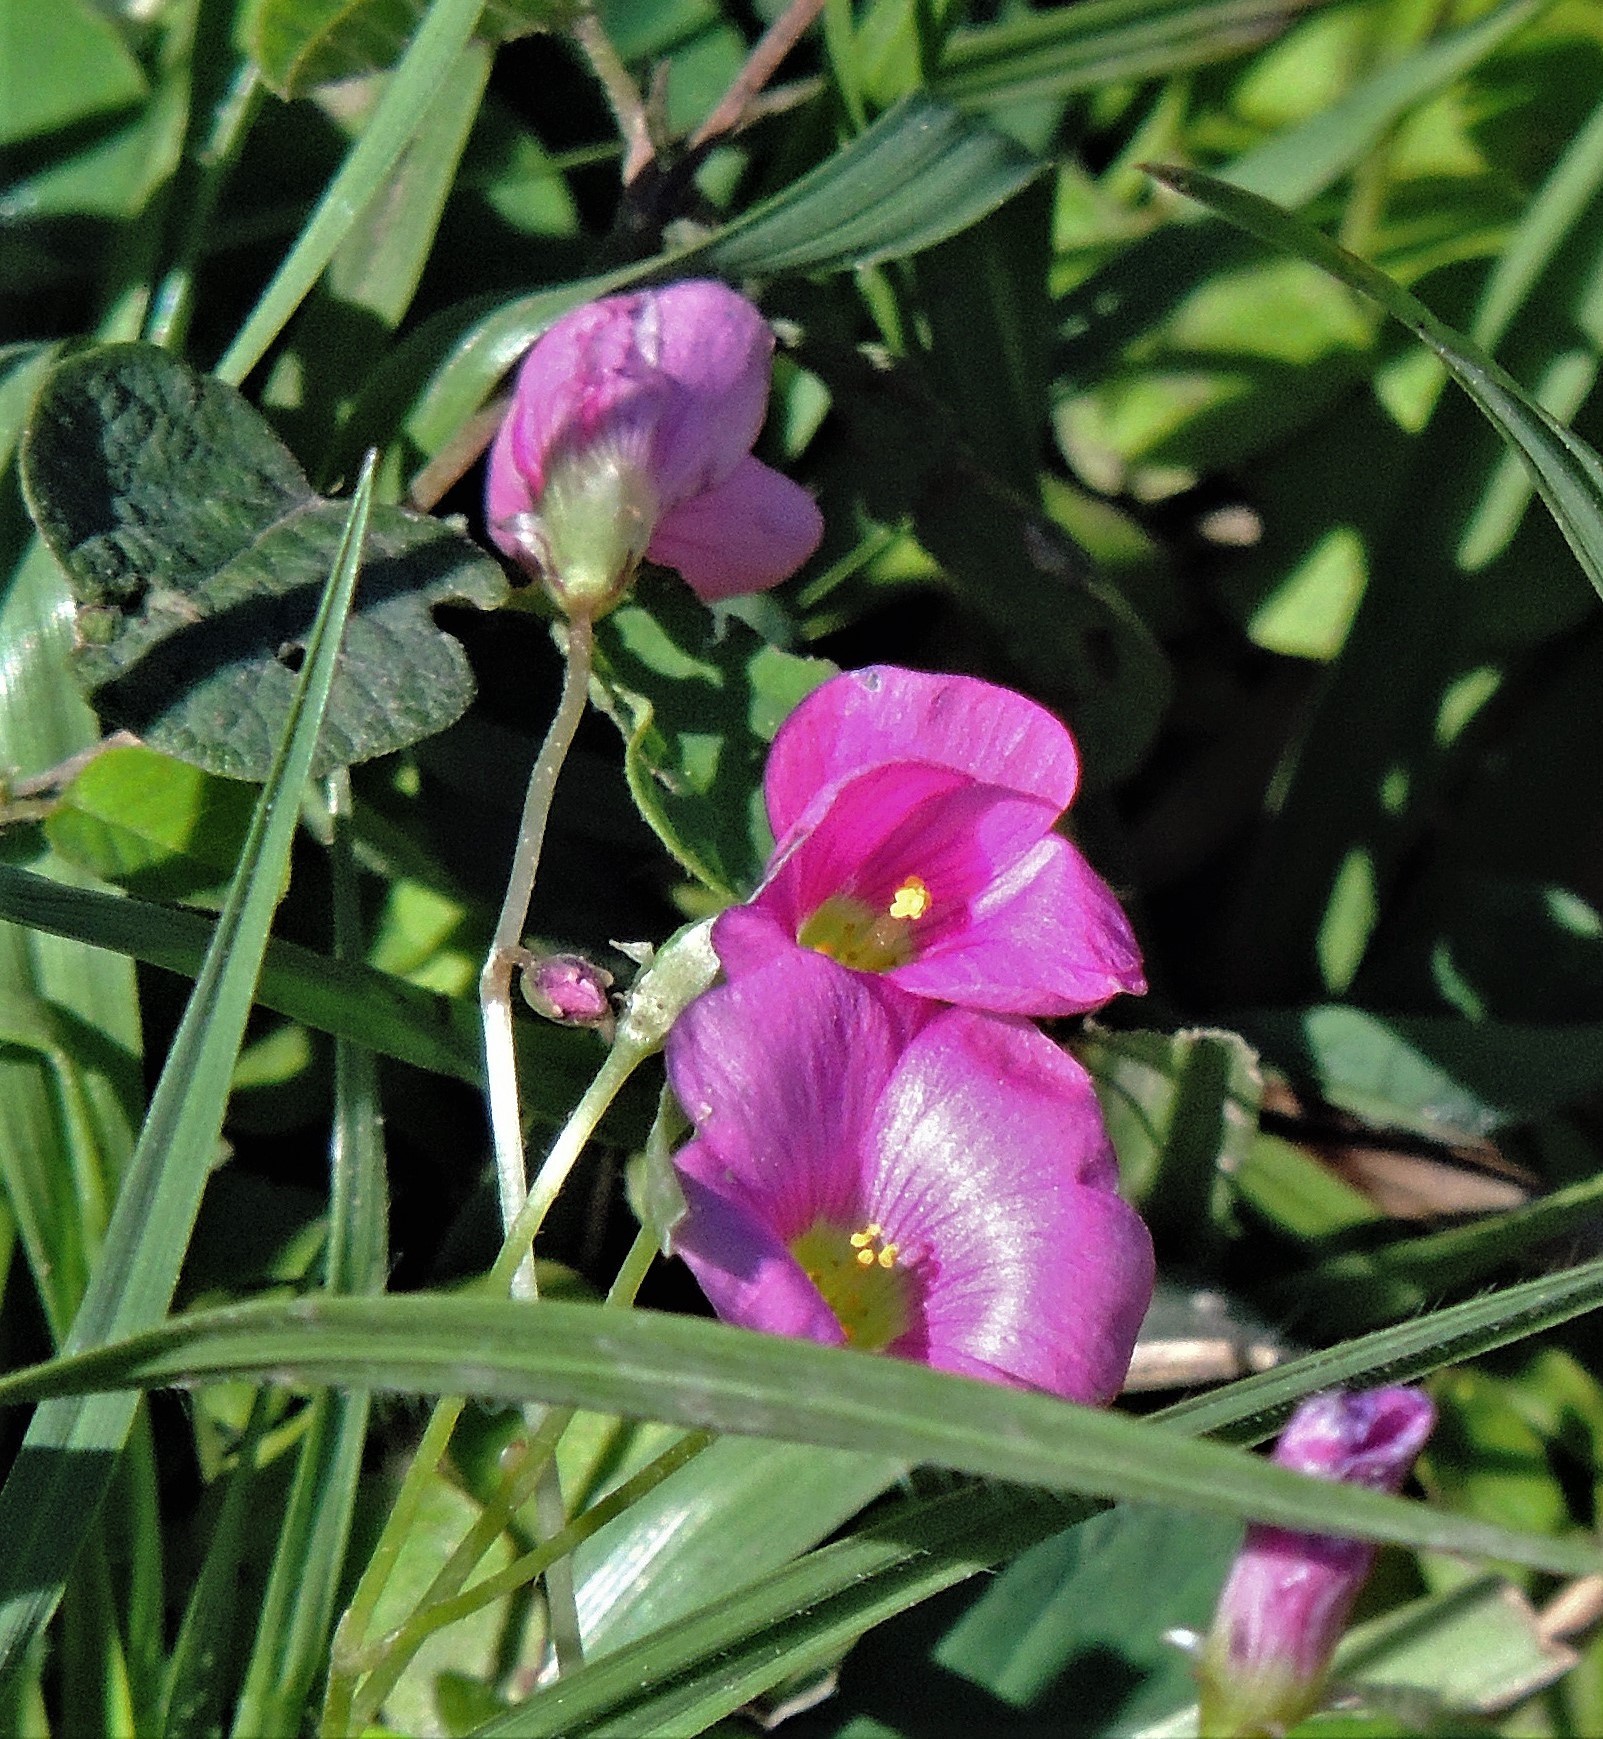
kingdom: Plantae
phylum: Tracheophyta
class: Magnoliopsida
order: Oxalidales
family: Oxalidaceae
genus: Oxalis
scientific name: Oxalis hispidula
